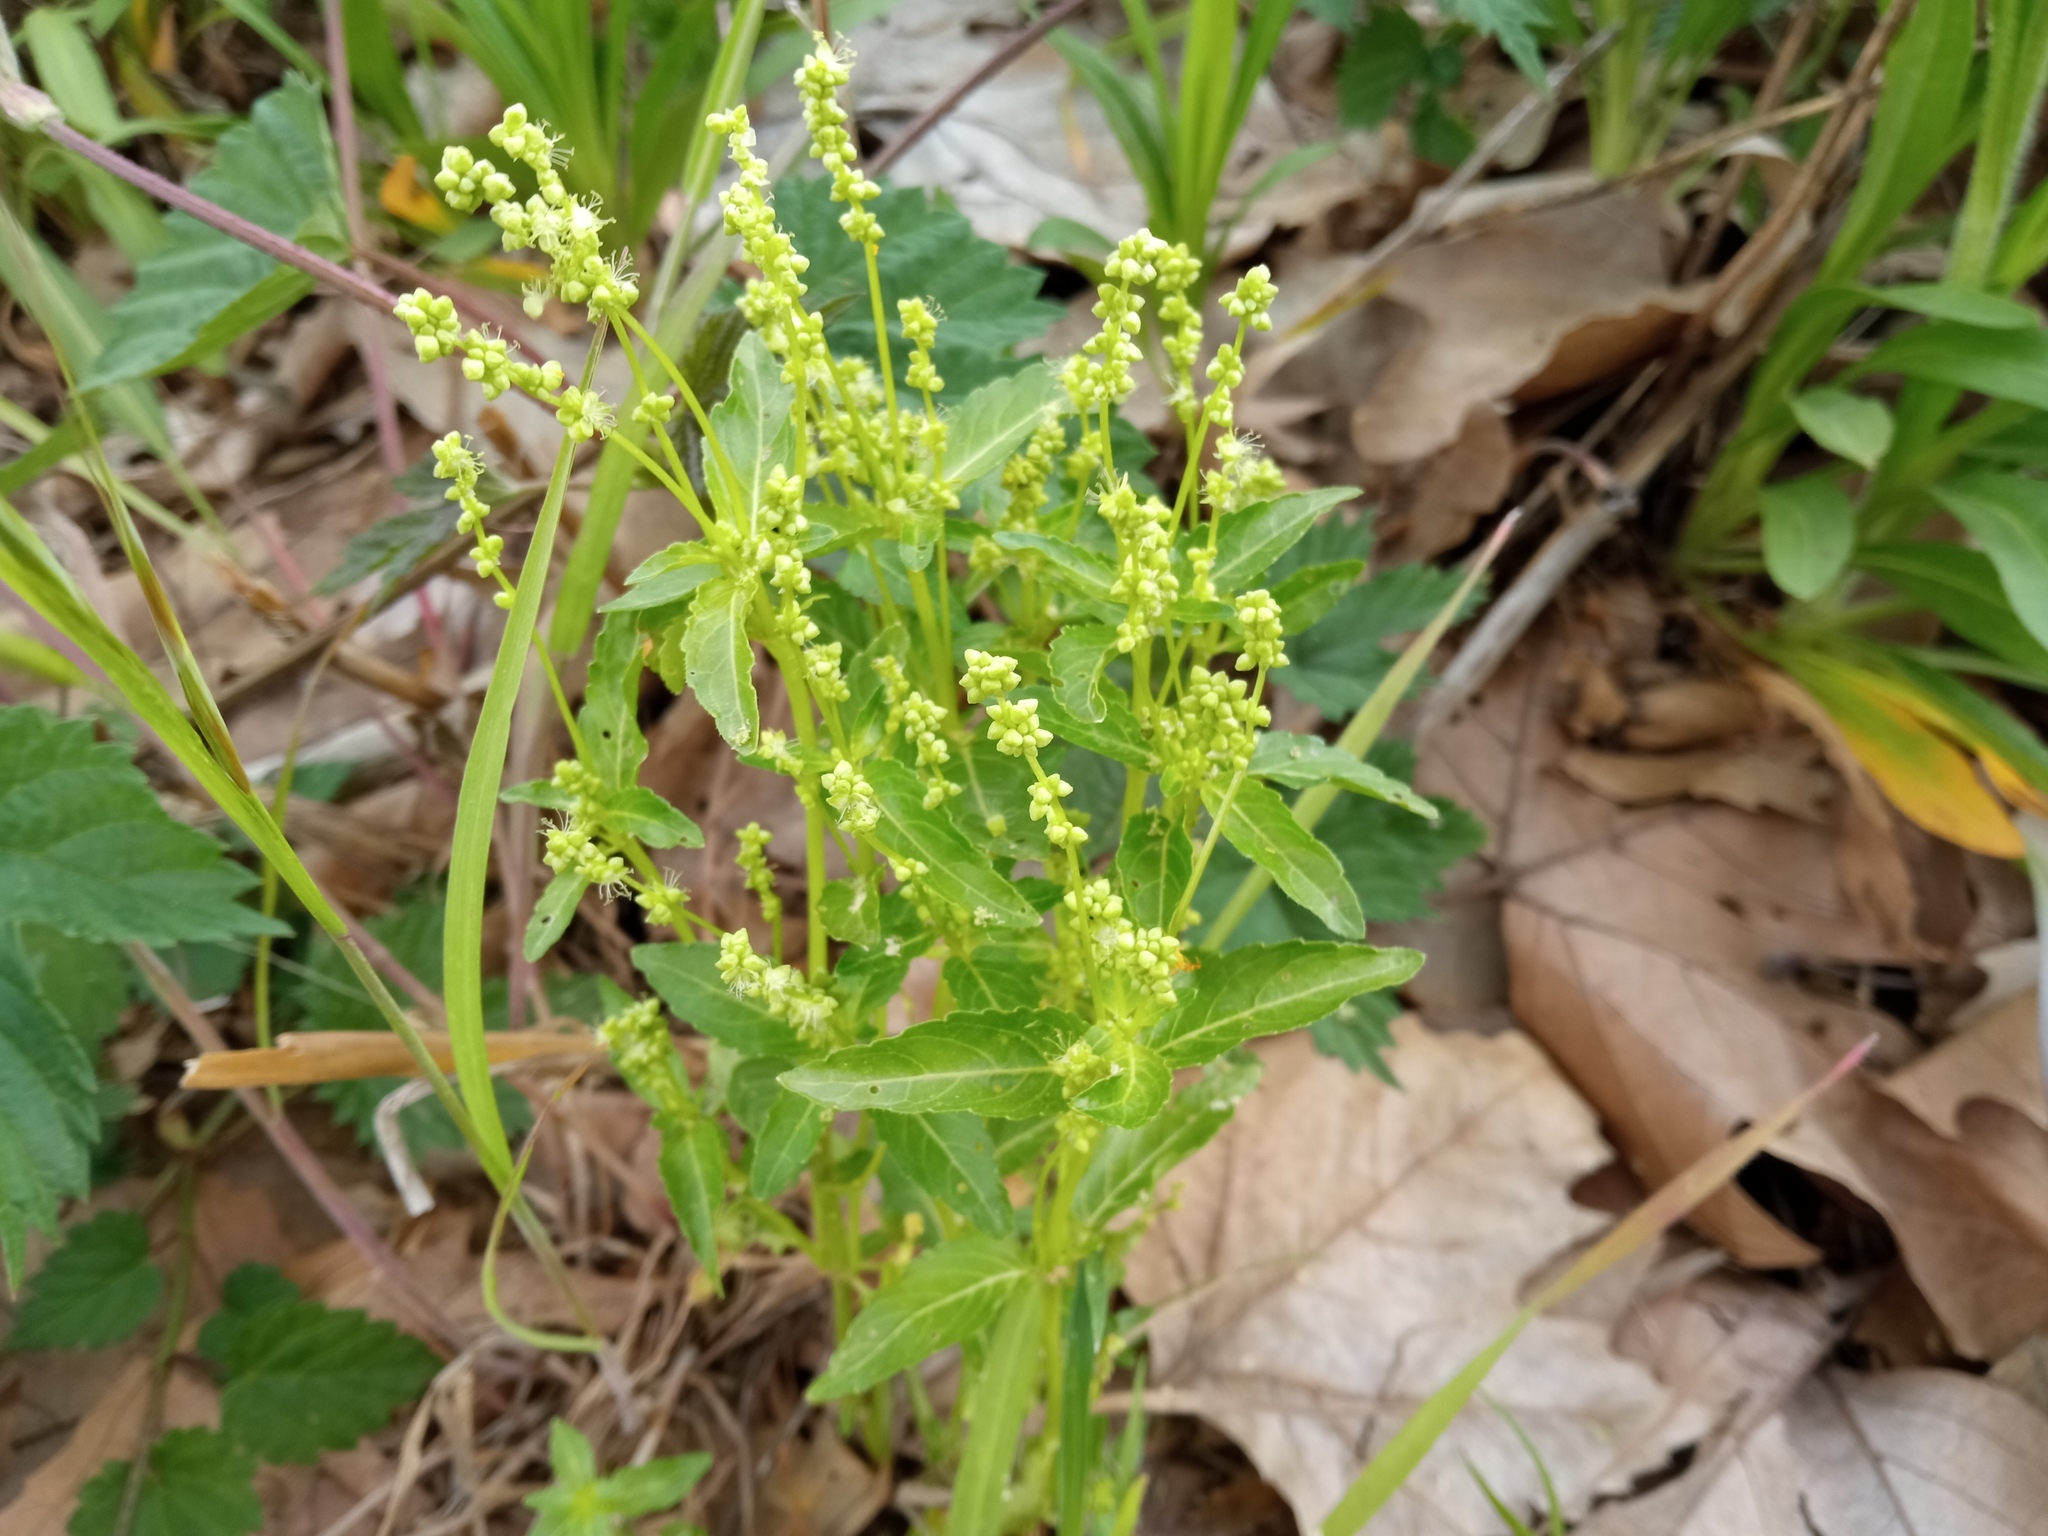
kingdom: Plantae
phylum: Tracheophyta
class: Magnoliopsida
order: Malpighiales
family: Euphorbiaceae
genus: Mercurialis
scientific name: Mercurialis annua
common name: Annual mercury
